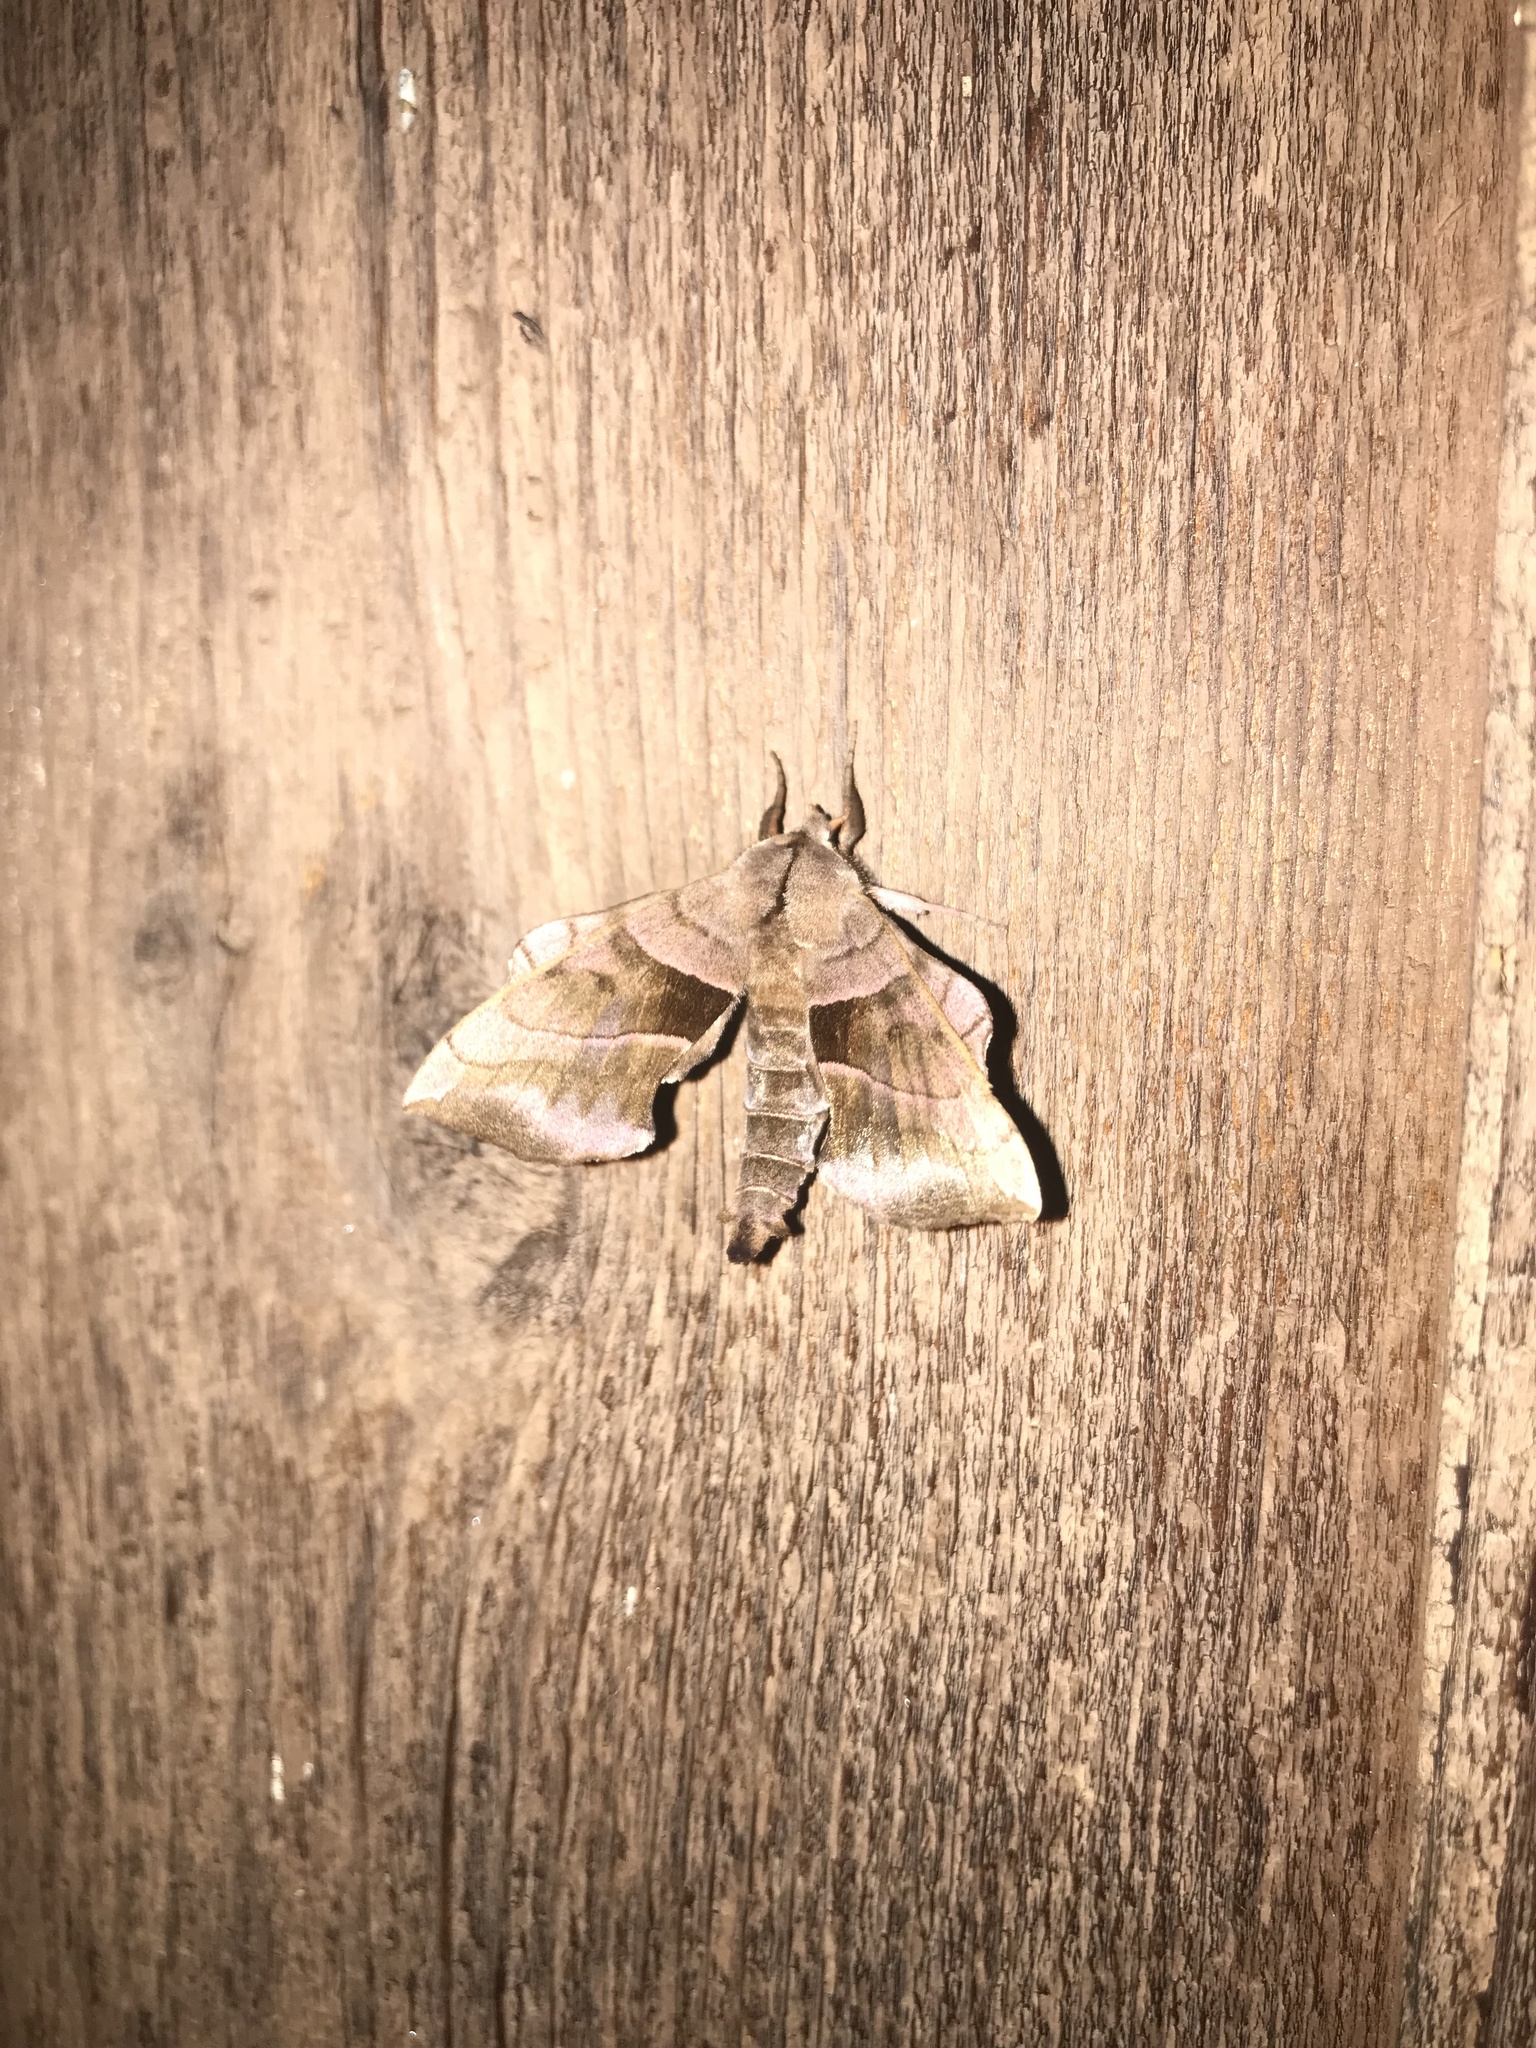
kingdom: Animalia
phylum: Arthropoda
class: Insecta
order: Lepidoptera
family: Sphingidae
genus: Amorpha
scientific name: Amorpha juglandis
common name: Walnut sphinx
